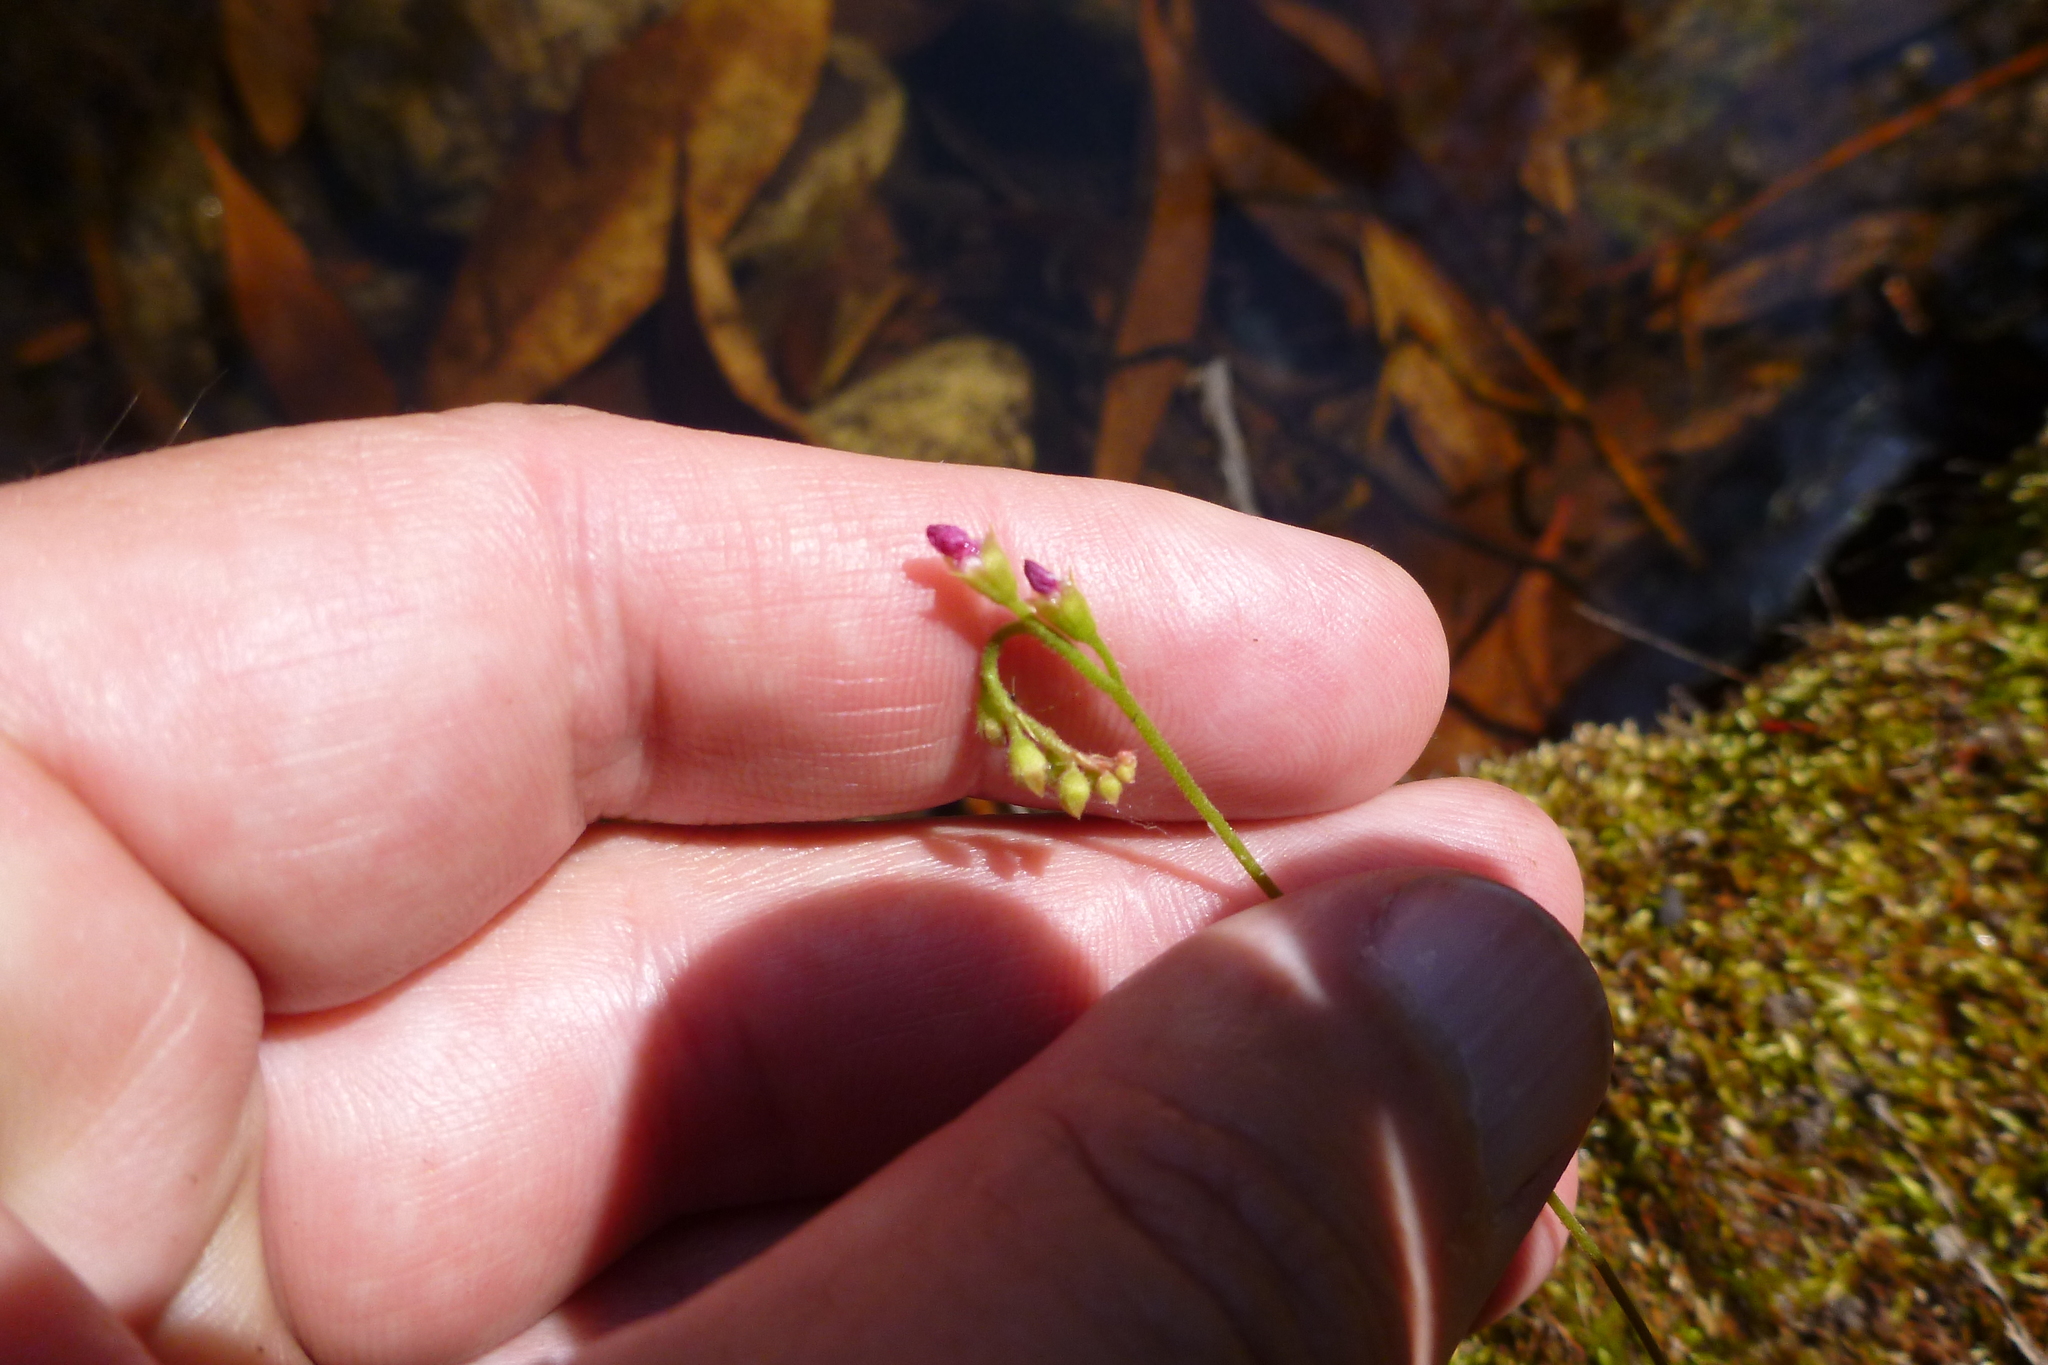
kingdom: Plantae
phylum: Tracheophyta
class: Magnoliopsida
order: Caryophyllales
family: Droseraceae
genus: Drosera
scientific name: Drosera spatulata
